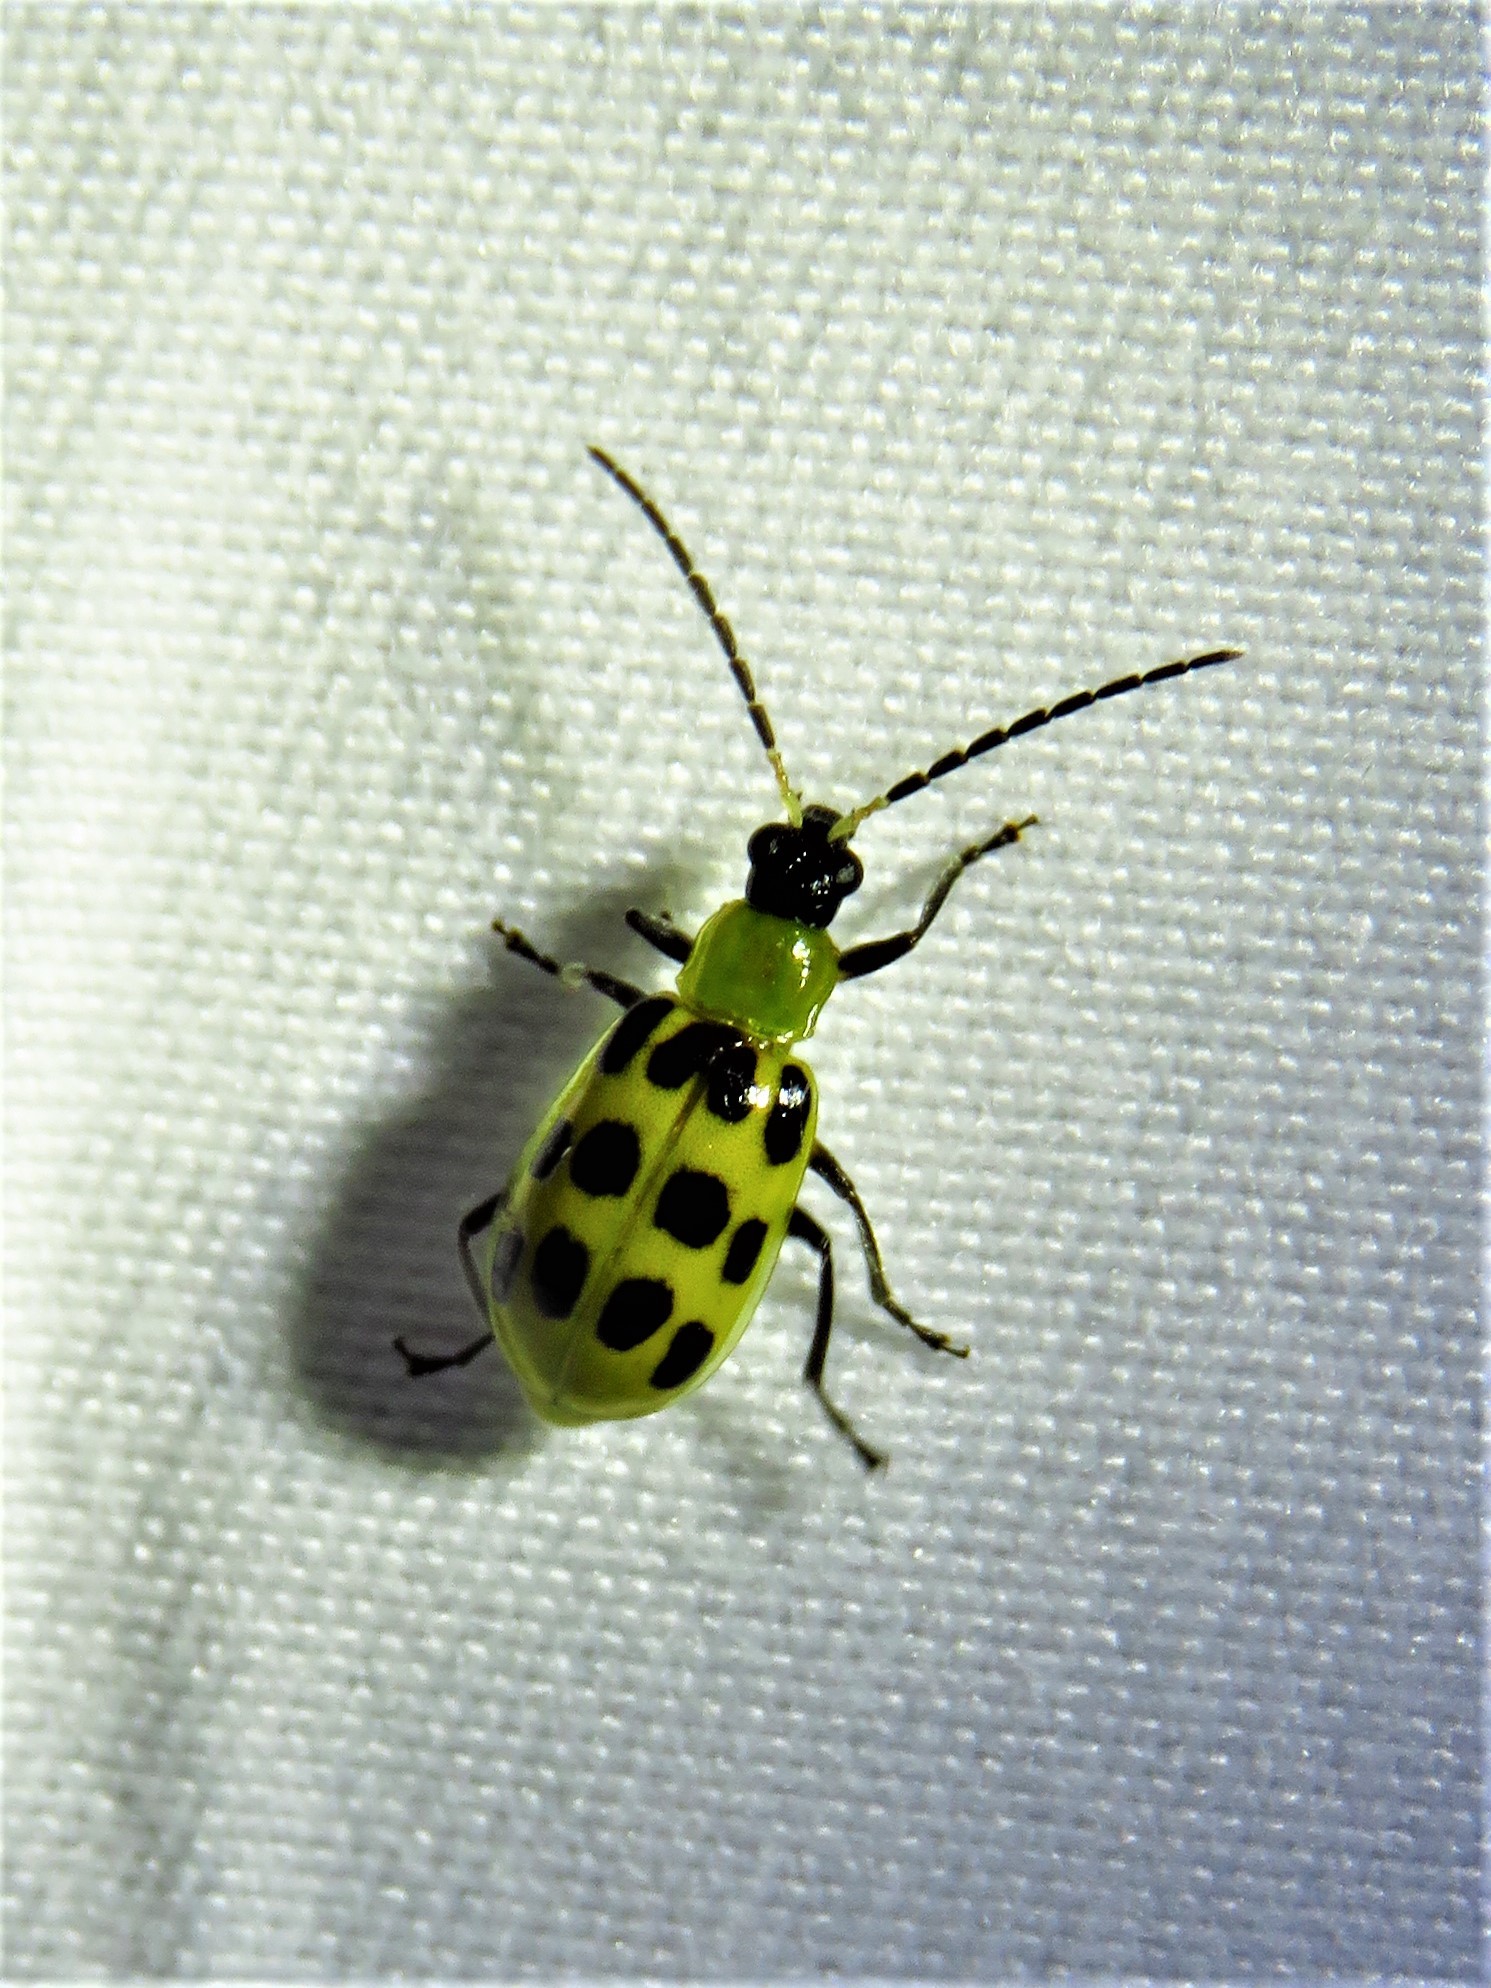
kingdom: Animalia
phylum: Arthropoda
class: Insecta
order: Coleoptera
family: Chrysomelidae
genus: Diabrotica
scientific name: Diabrotica undecimpunctata
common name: Spotted cucumber beetle
